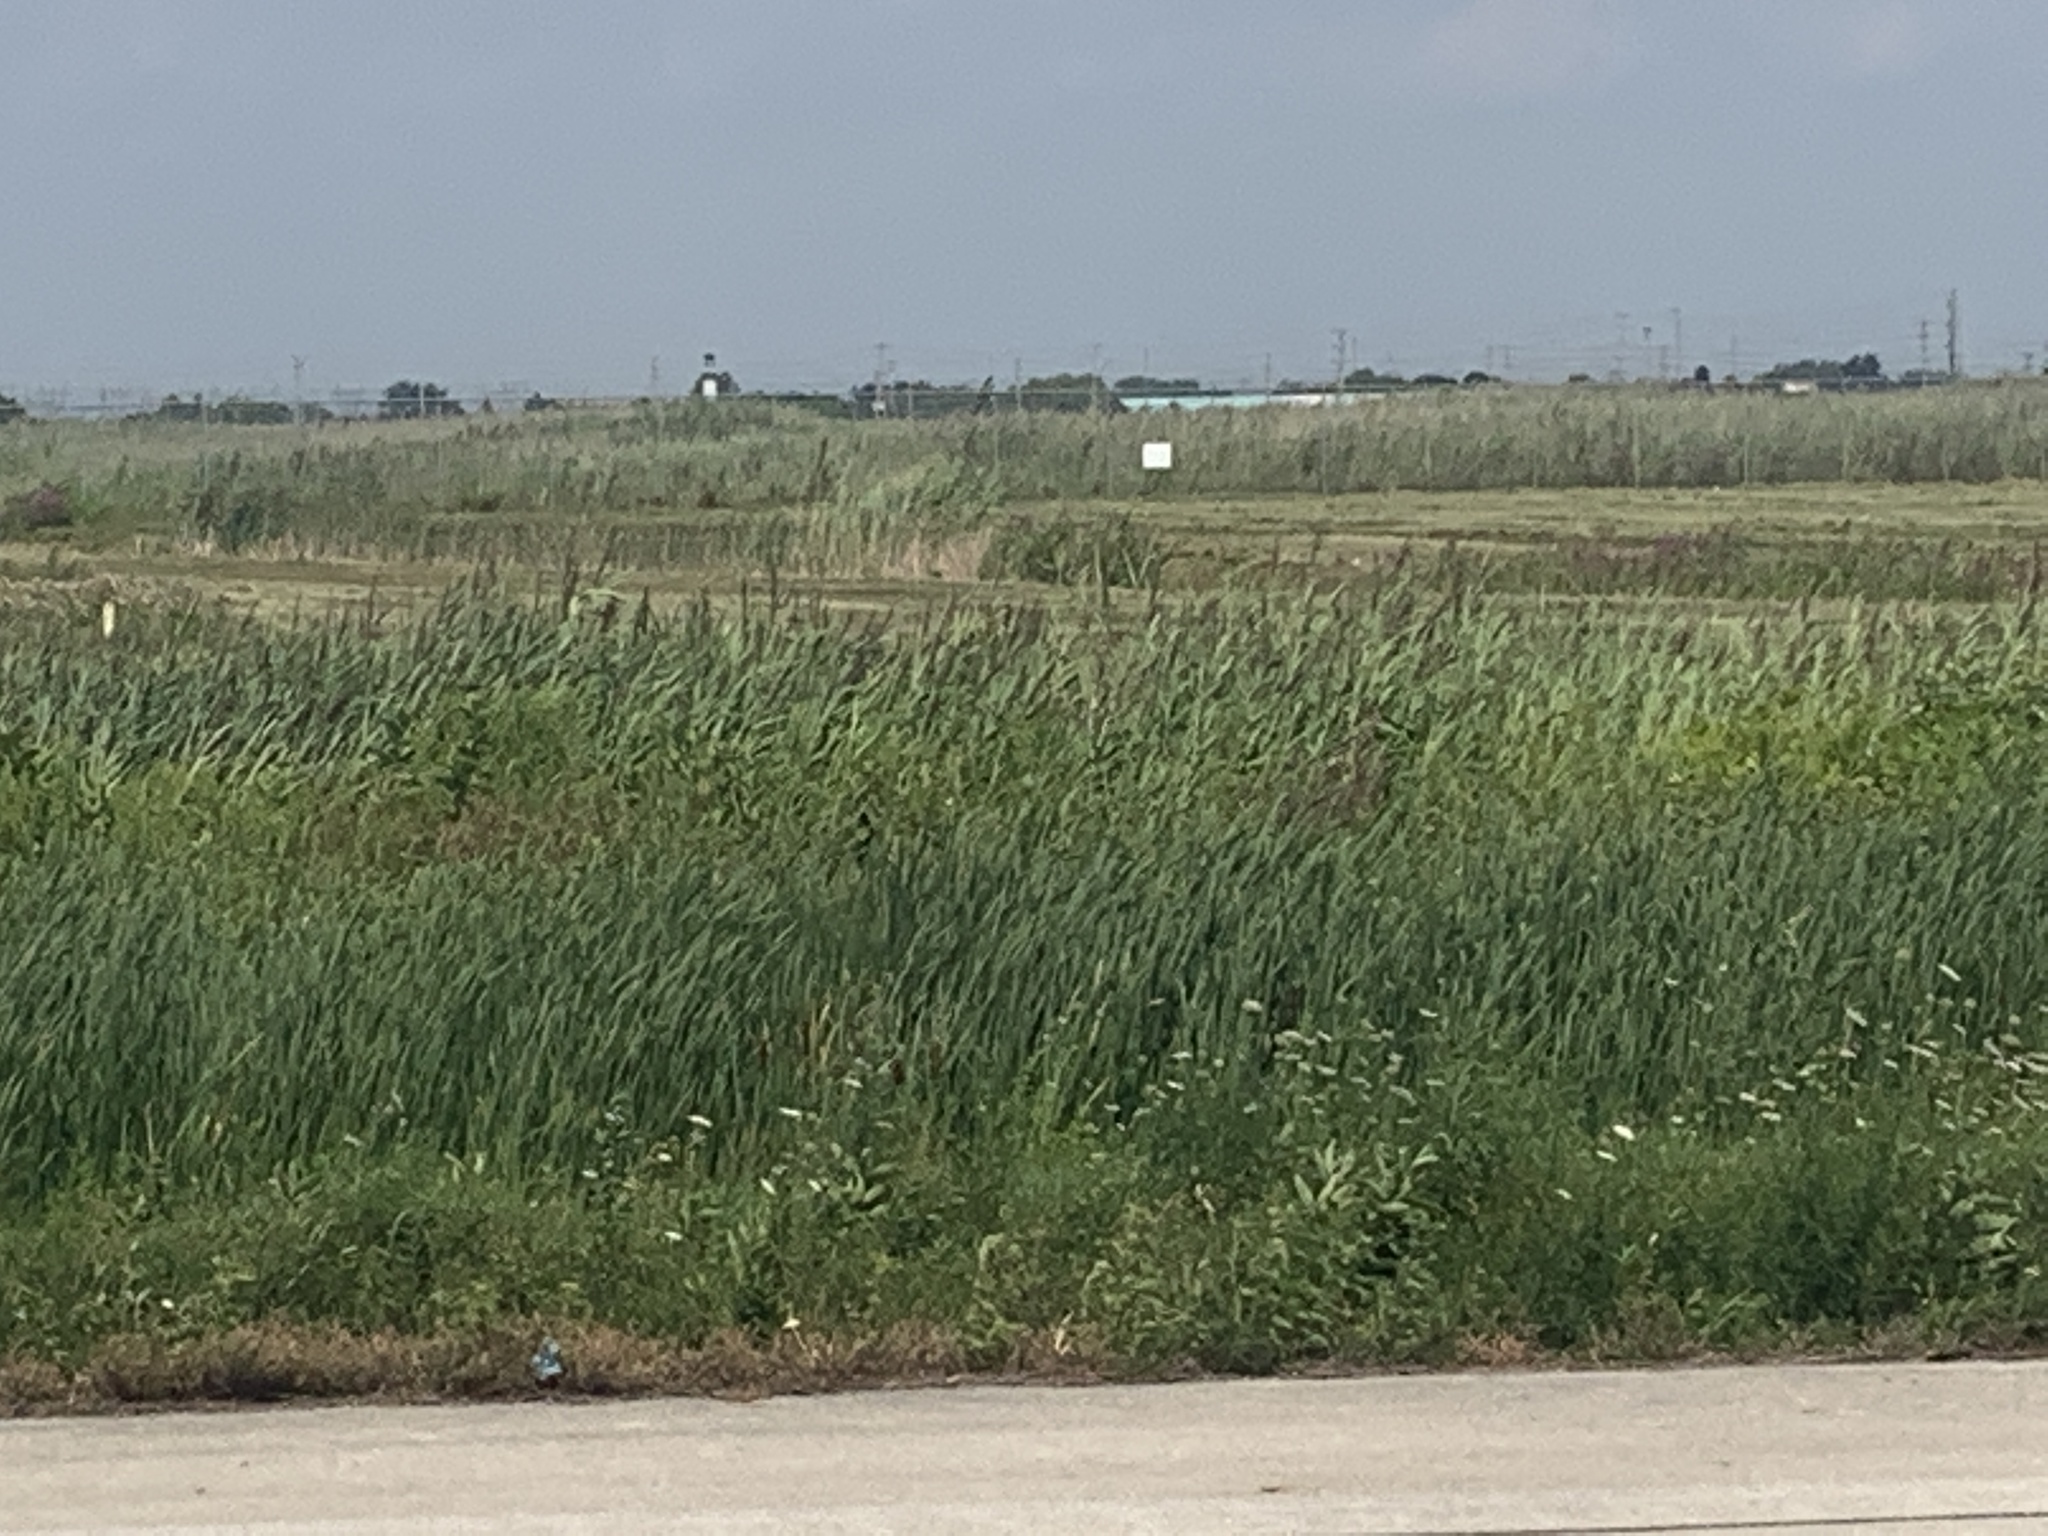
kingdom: Plantae
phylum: Tracheophyta
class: Liliopsida
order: Poales
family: Poaceae
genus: Phragmites
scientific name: Phragmites australis
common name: Common reed
